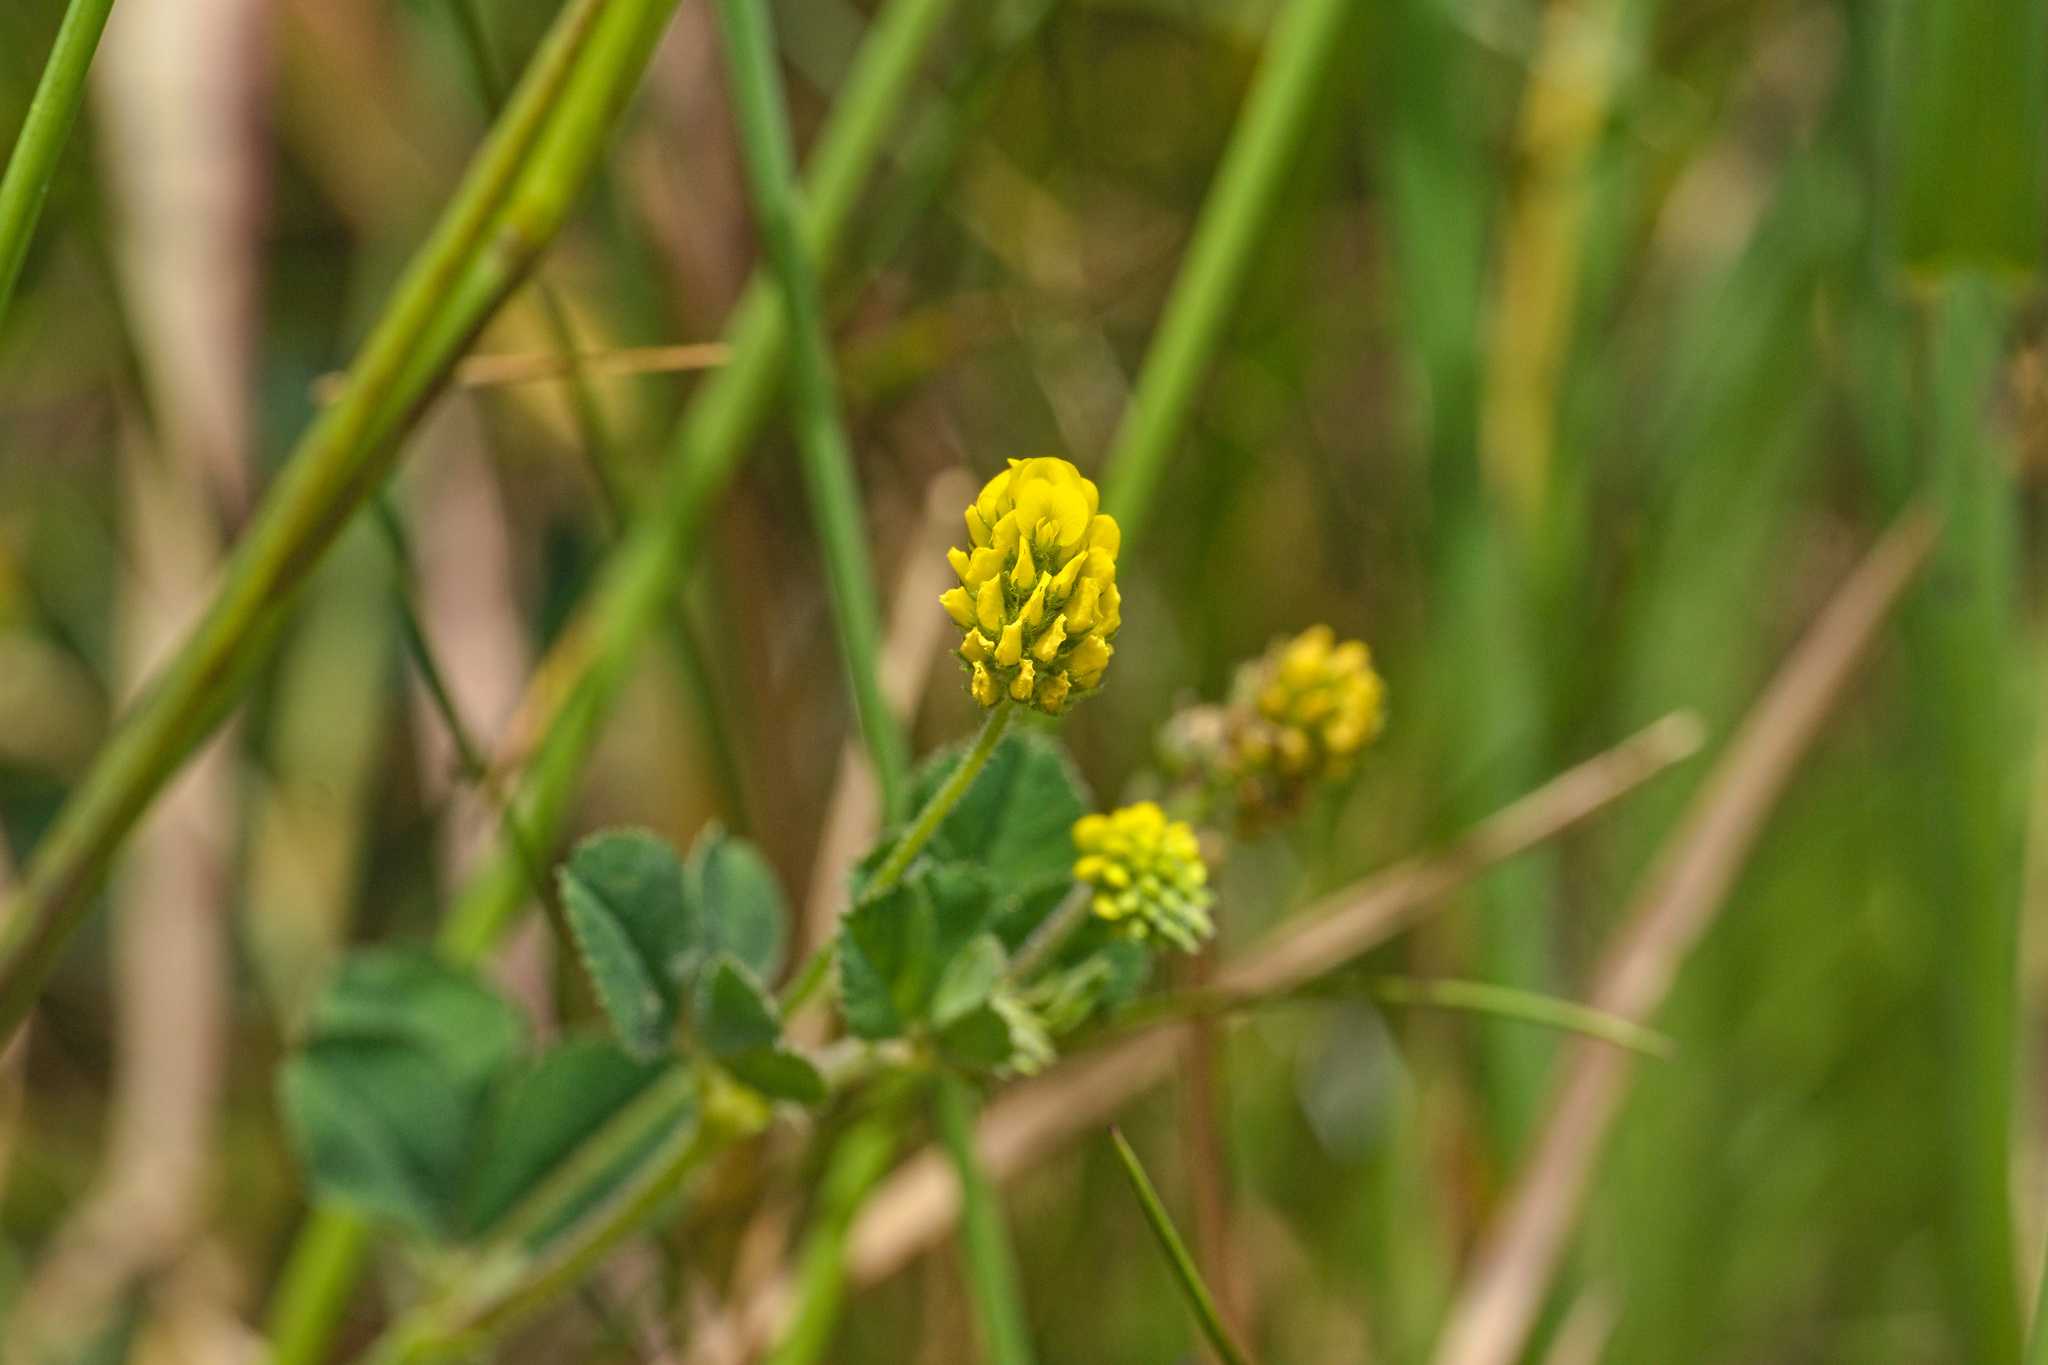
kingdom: Plantae
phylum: Tracheophyta
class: Magnoliopsida
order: Fabales
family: Fabaceae
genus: Medicago
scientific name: Medicago lupulina
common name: Black medick
